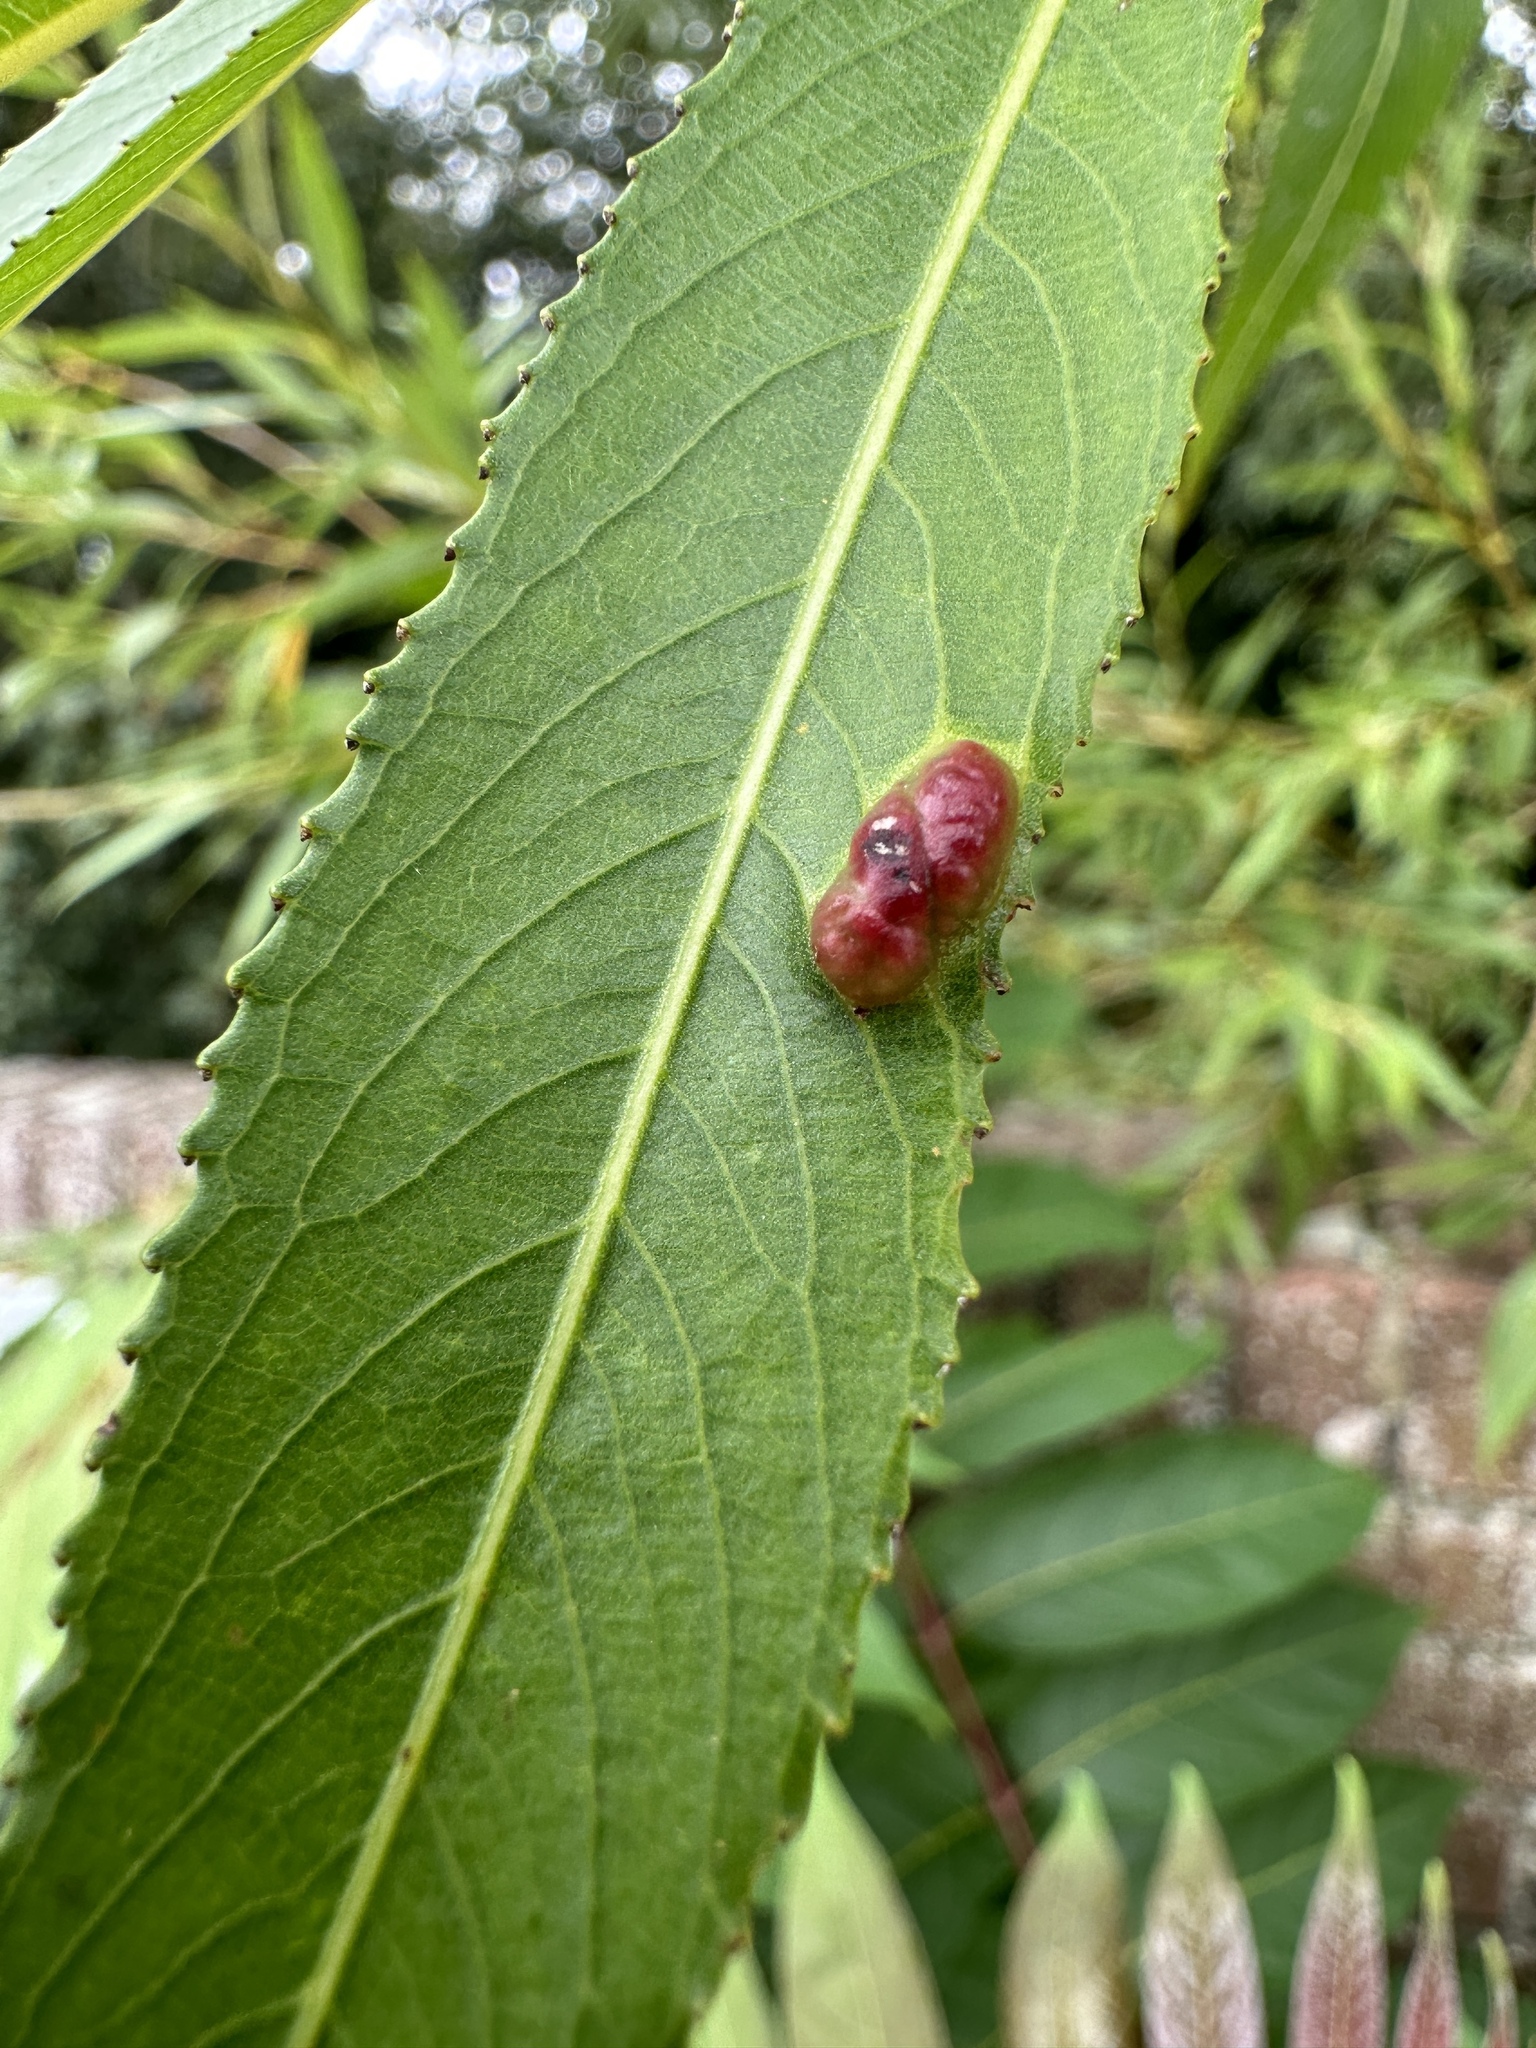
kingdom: Animalia
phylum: Arthropoda
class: Insecta
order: Hymenoptera
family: Tenthredinidae
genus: Pontania
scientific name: Pontania proxima
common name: Common sawfly
